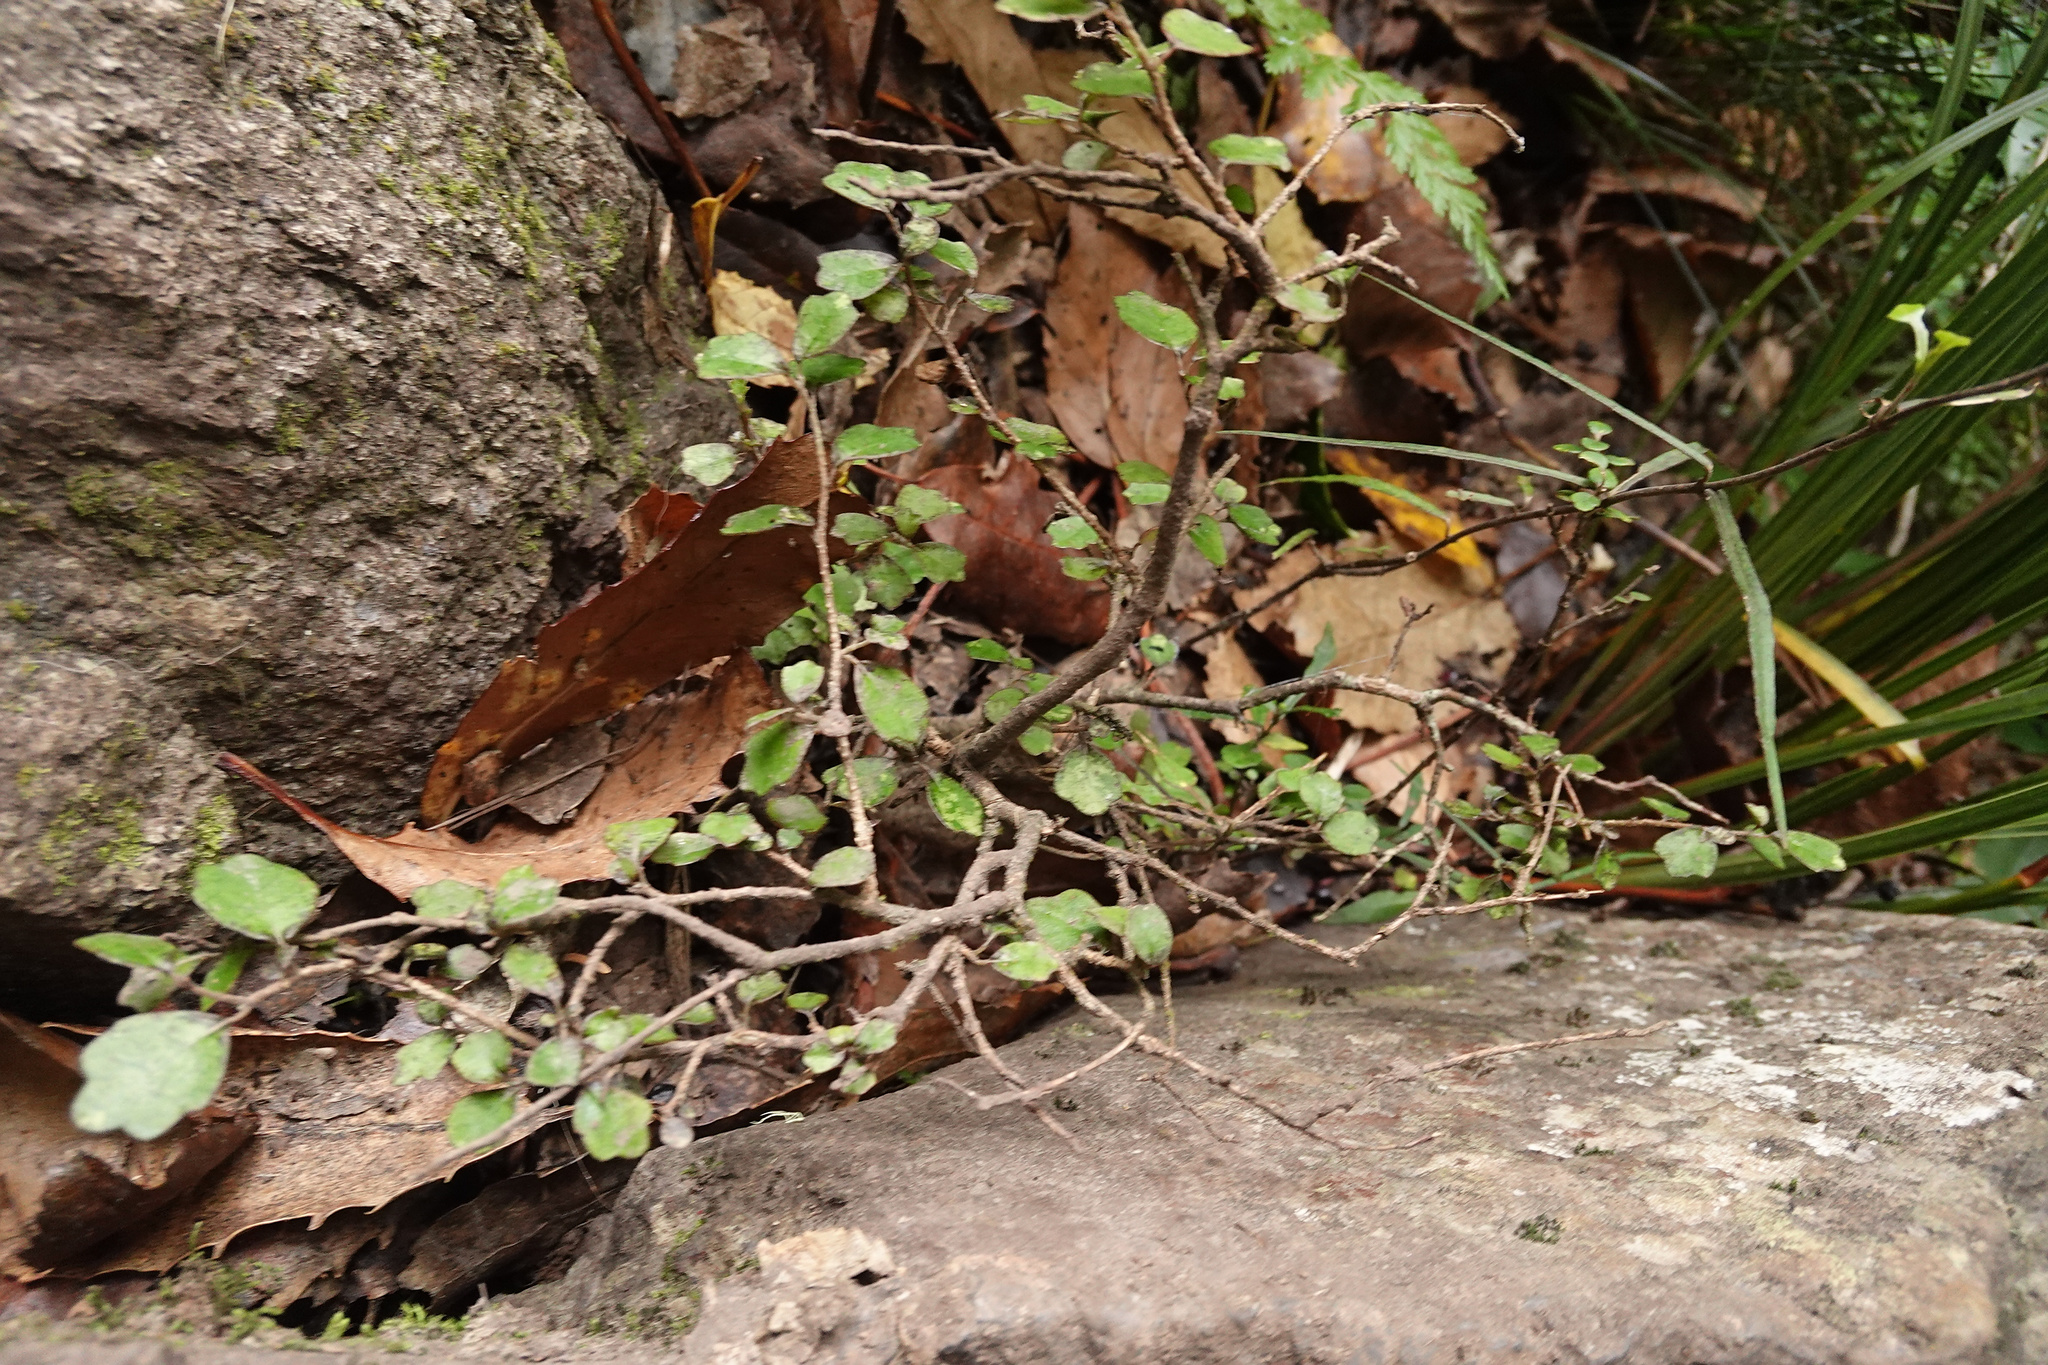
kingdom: Plantae
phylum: Tracheophyta
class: Magnoliopsida
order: Apiales
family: Pennantiaceae
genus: Pennantia
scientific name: Pennantia corymbosa
